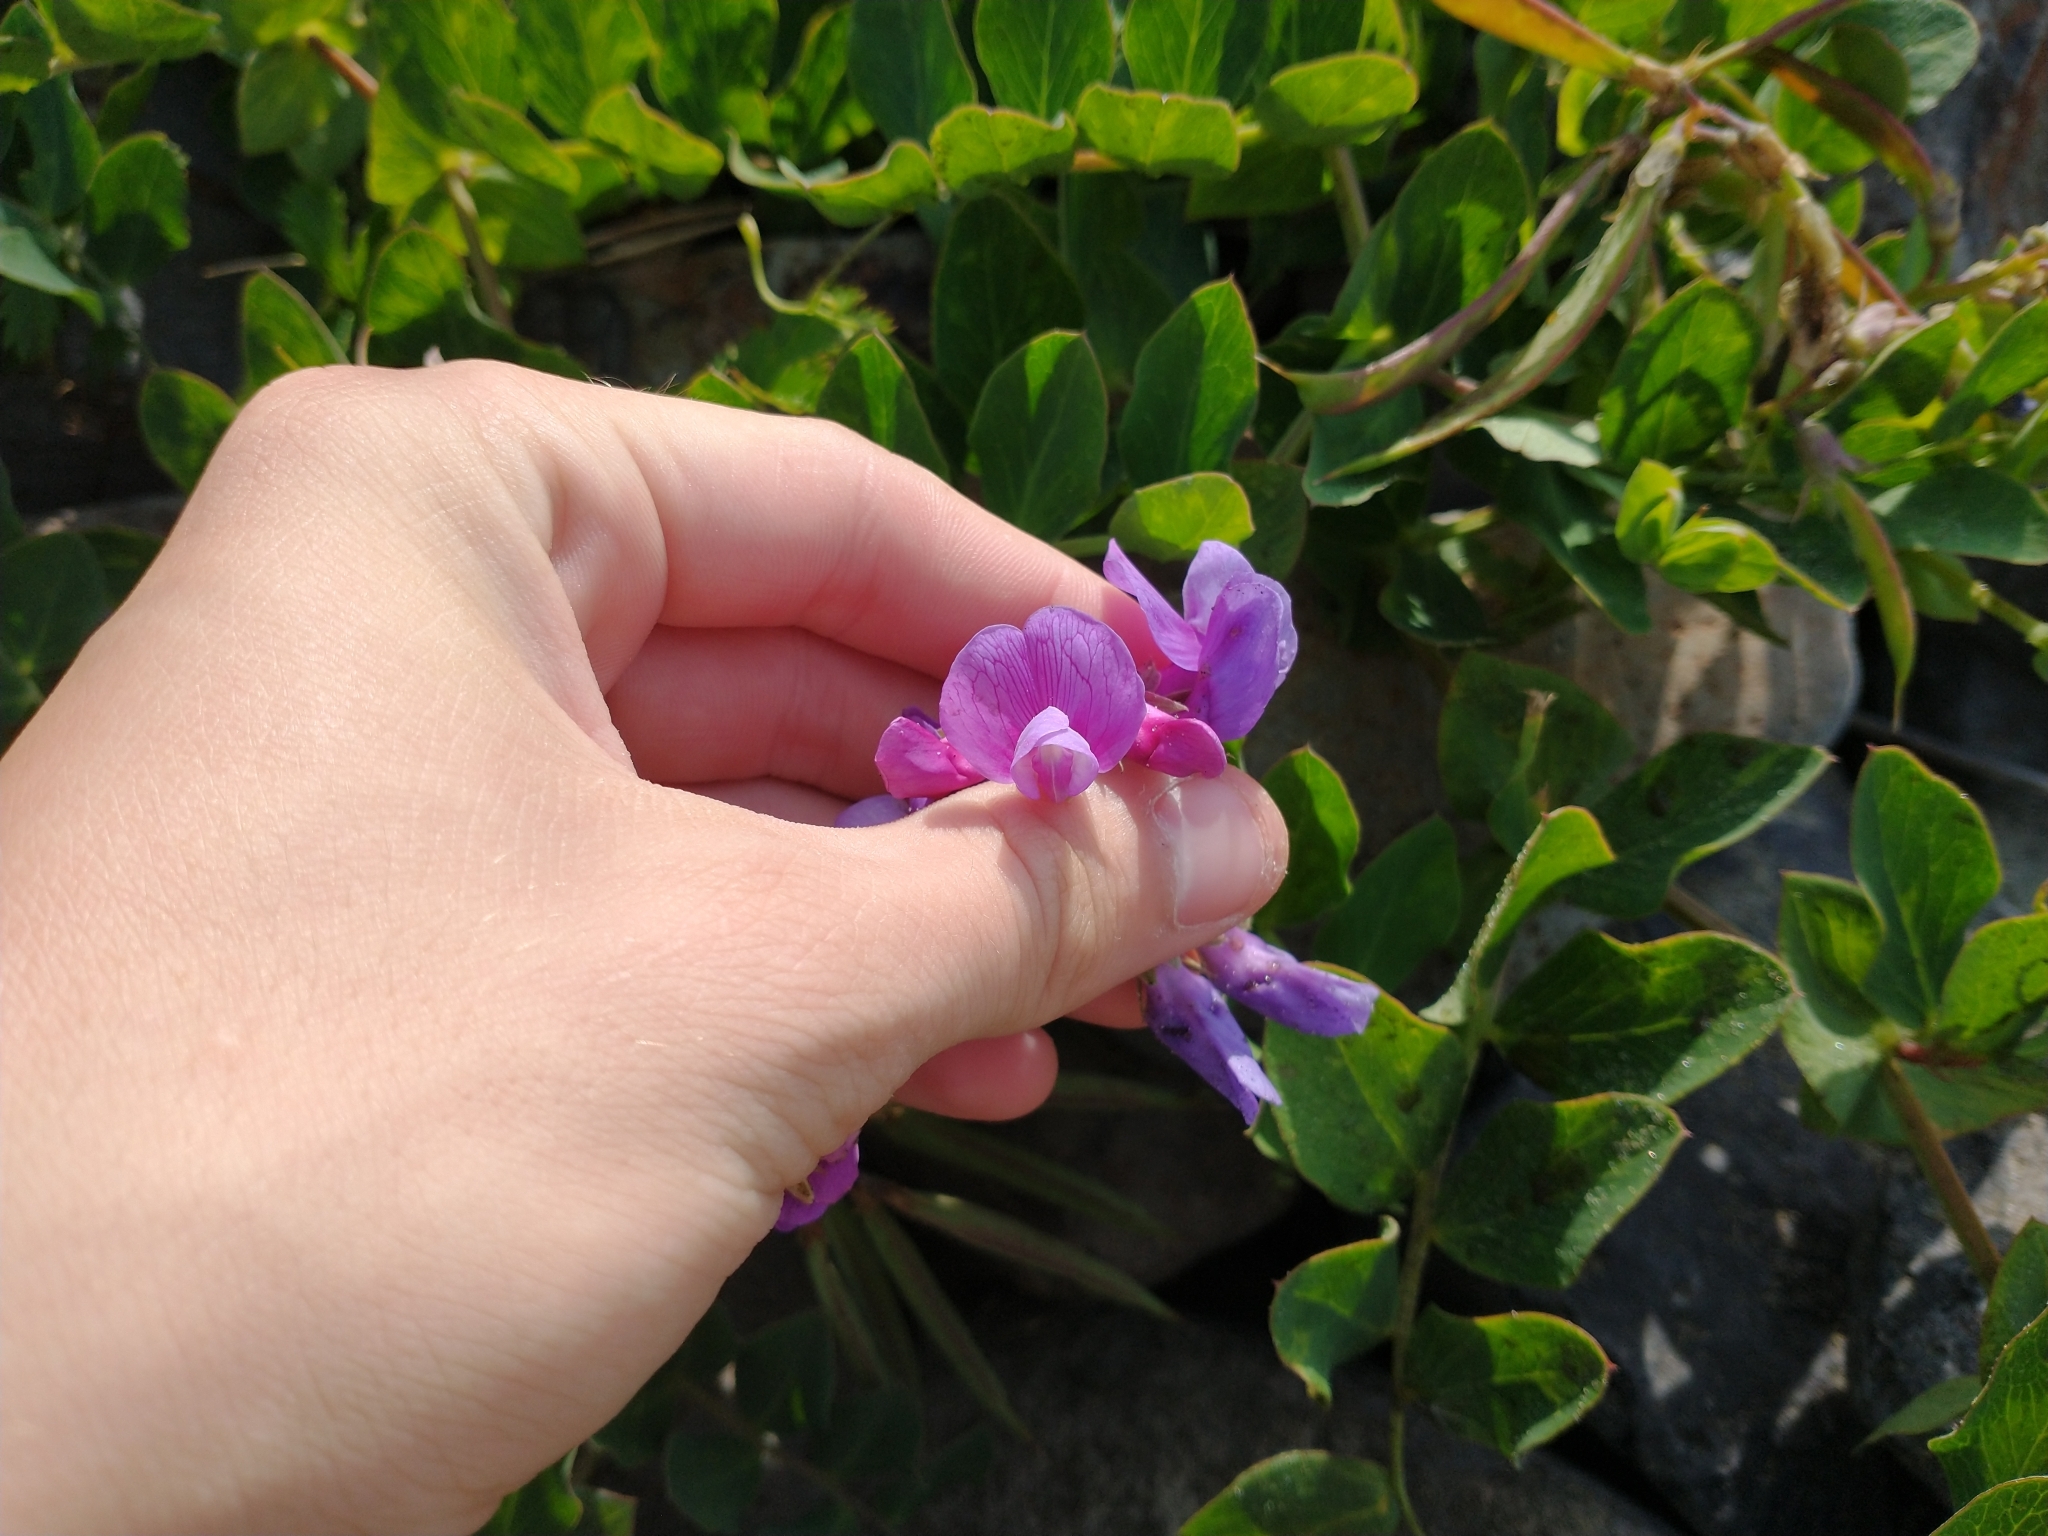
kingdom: Plantae
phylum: Tracheophyta
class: Magnoliopsida
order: Fabales
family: Fabaceae
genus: Lathyrus
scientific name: Lathyrus japonicus
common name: Sea pea
